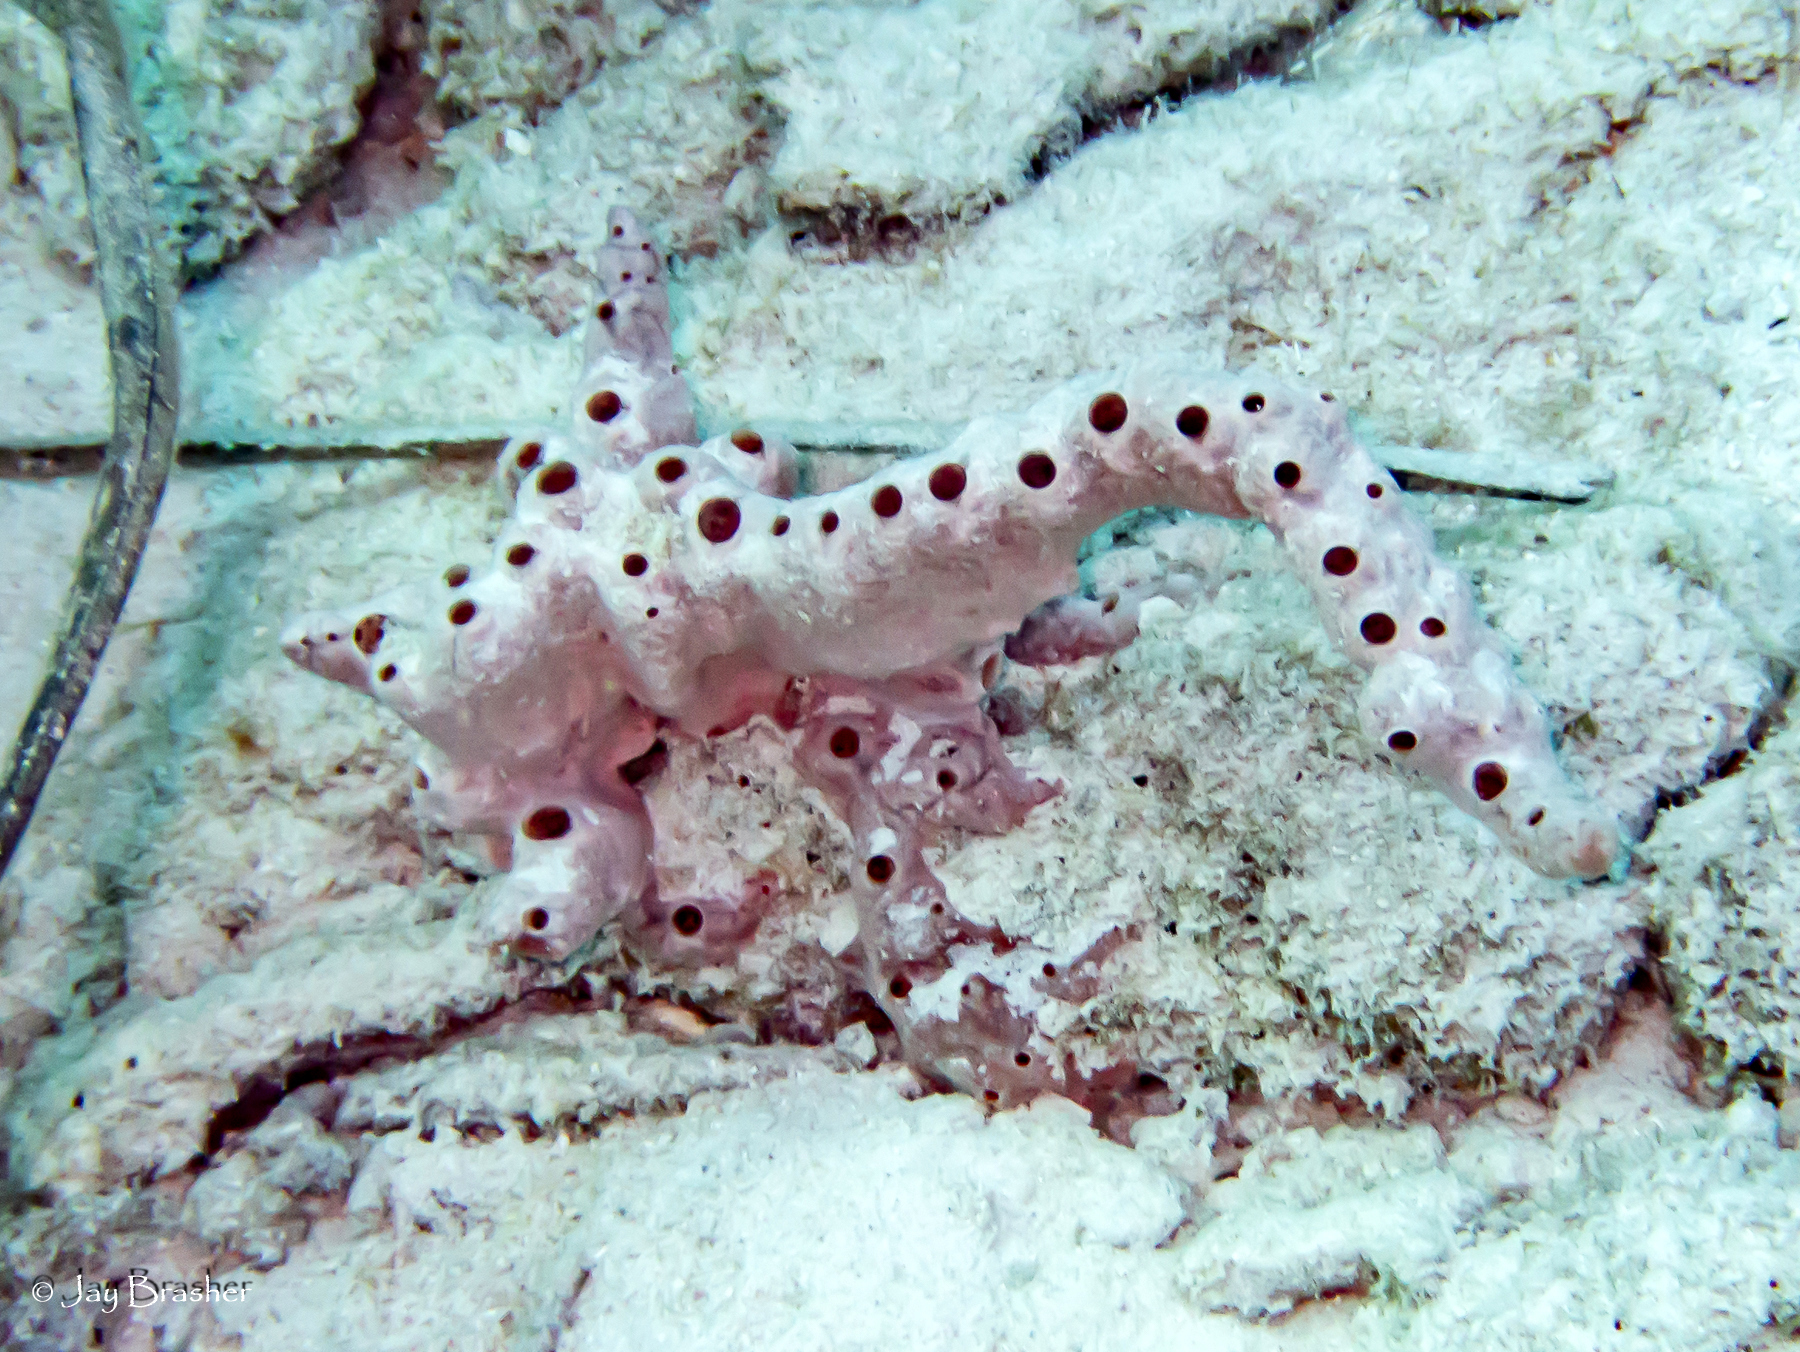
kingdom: Animalia
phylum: Porifera
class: Demospongiae
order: Poecilosclerida
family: Desmacididae
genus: Desmapsamma
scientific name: Desmapsamma anchorata
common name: Lumpy overgrowing sponge
